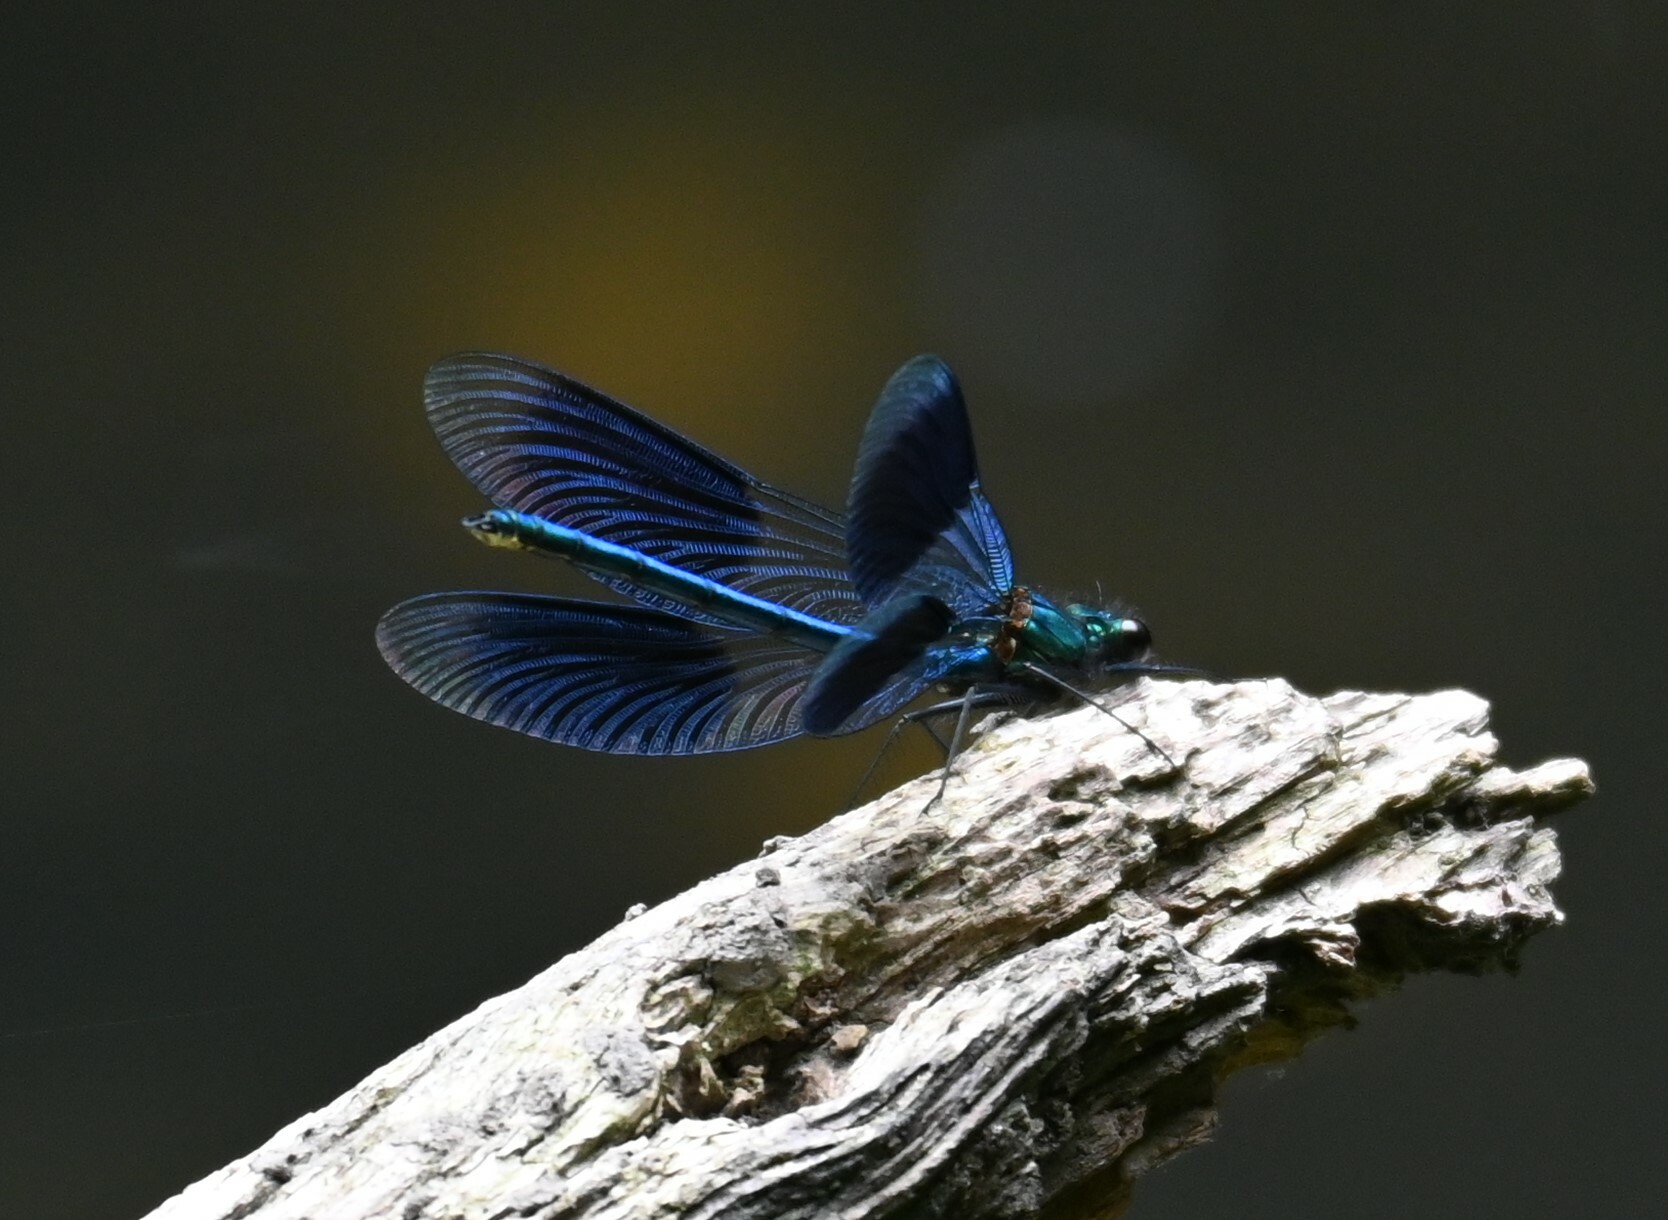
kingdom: Animalia
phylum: Arthropoda
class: Insecta
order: Odonata
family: Calopterygidae
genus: Calopteryx
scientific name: Calopteryx splendens
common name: Banded demoiselle
